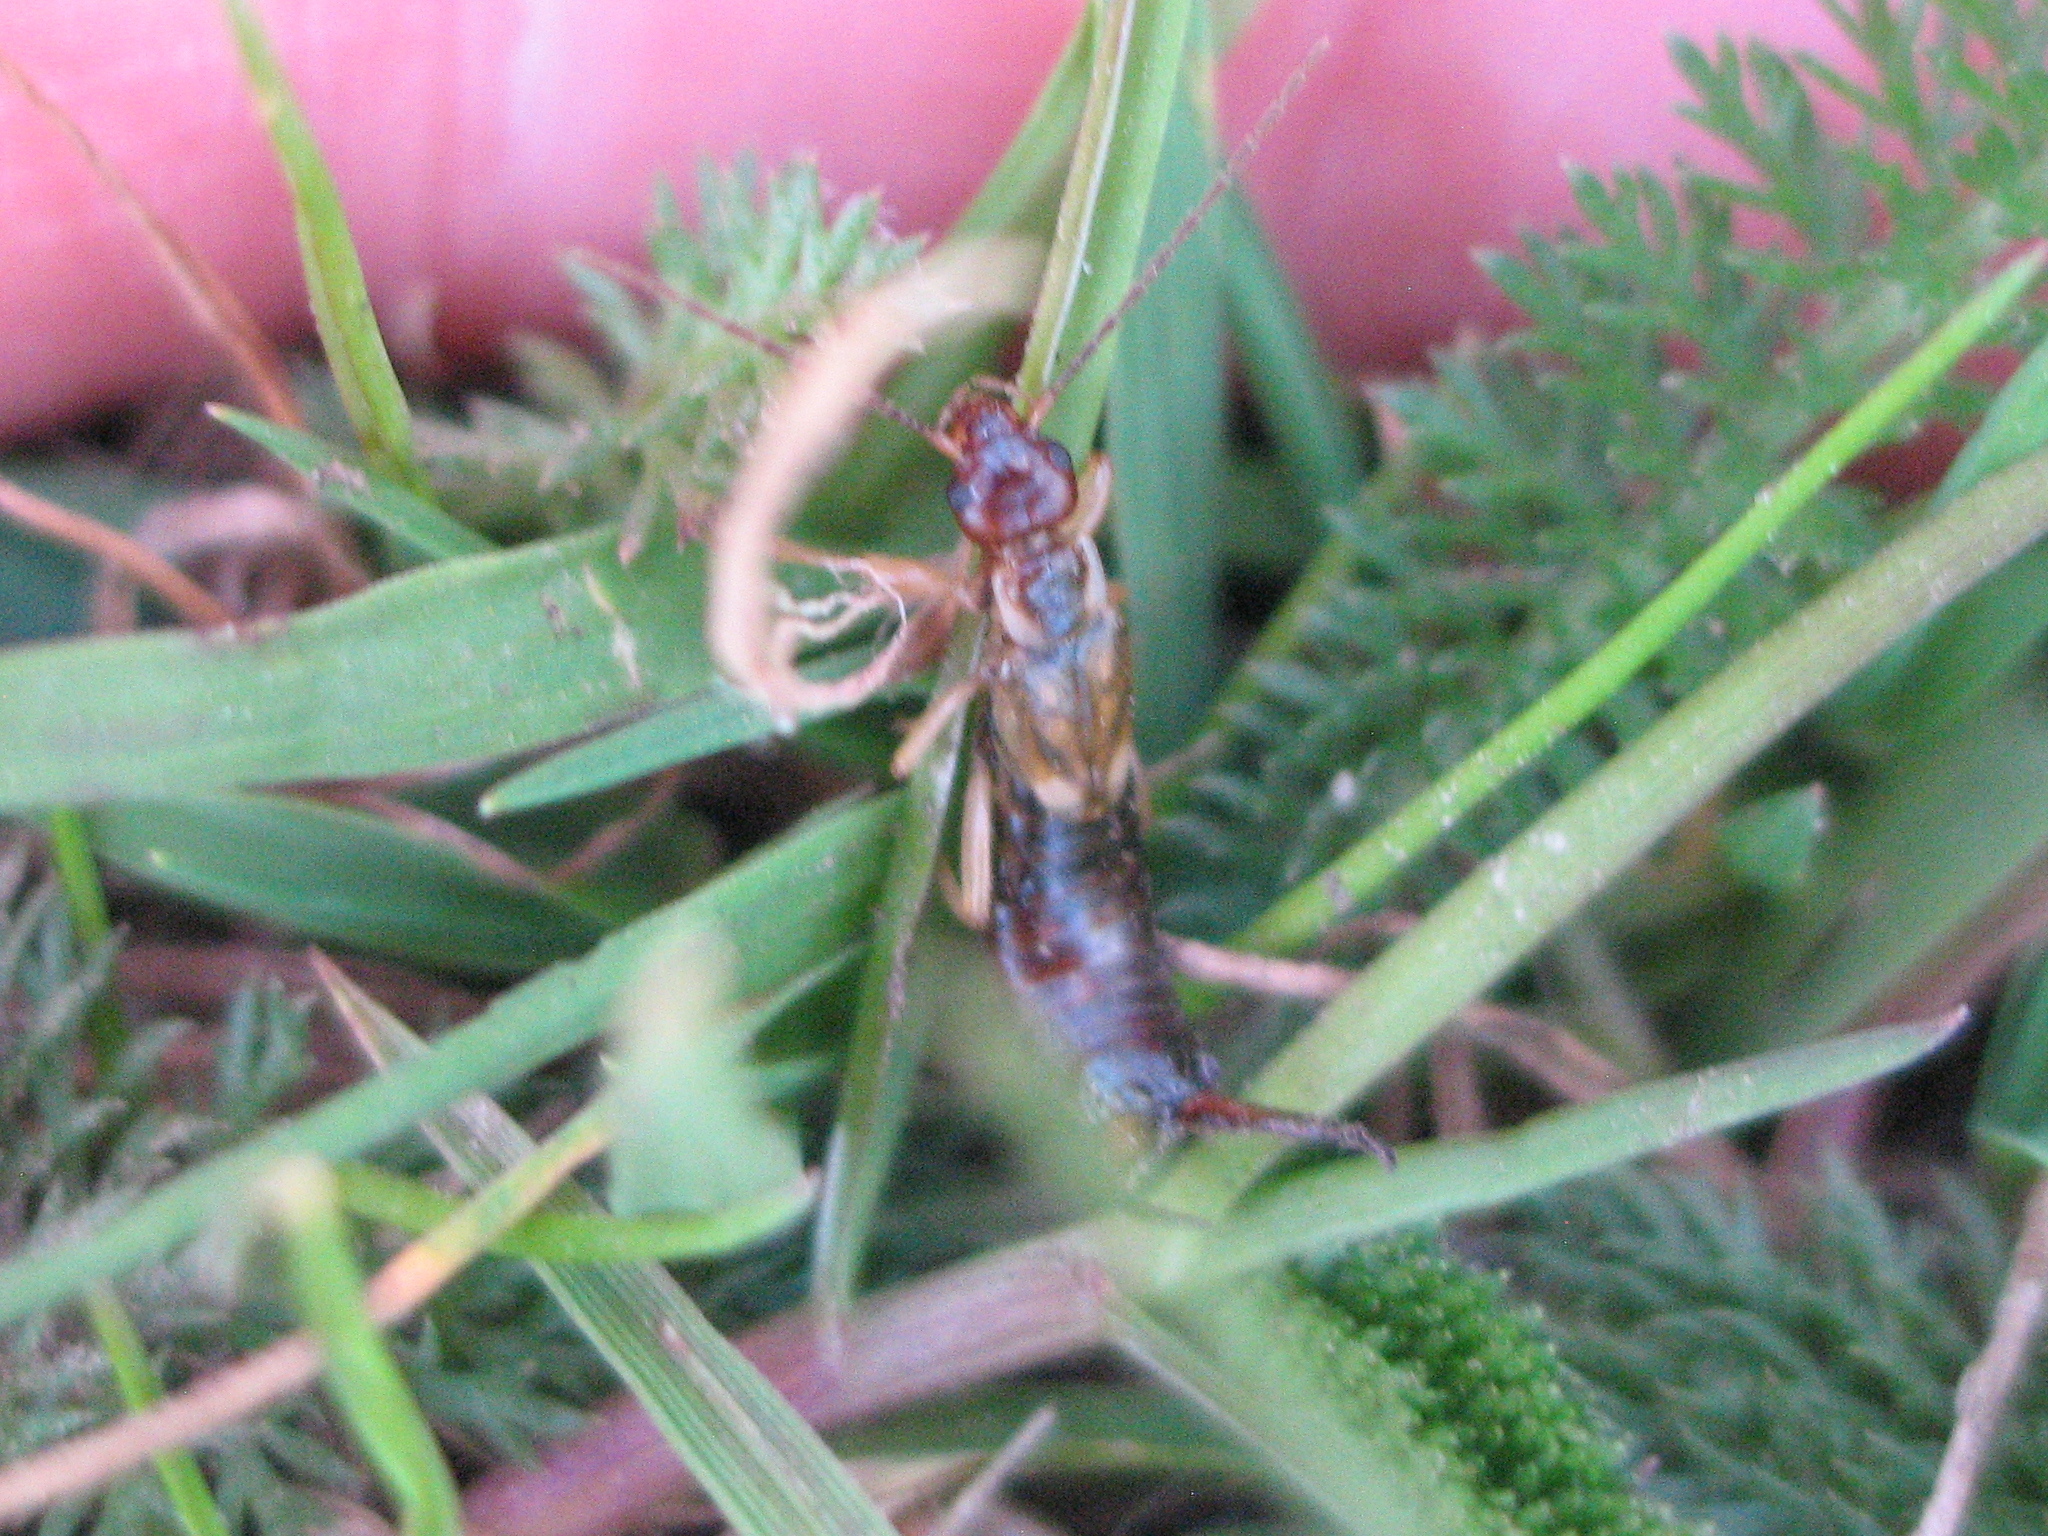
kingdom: Animalia
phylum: Arthropoda
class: Insecta
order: Dermaptera
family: Forficulidae
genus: Forficula
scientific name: Forficula
